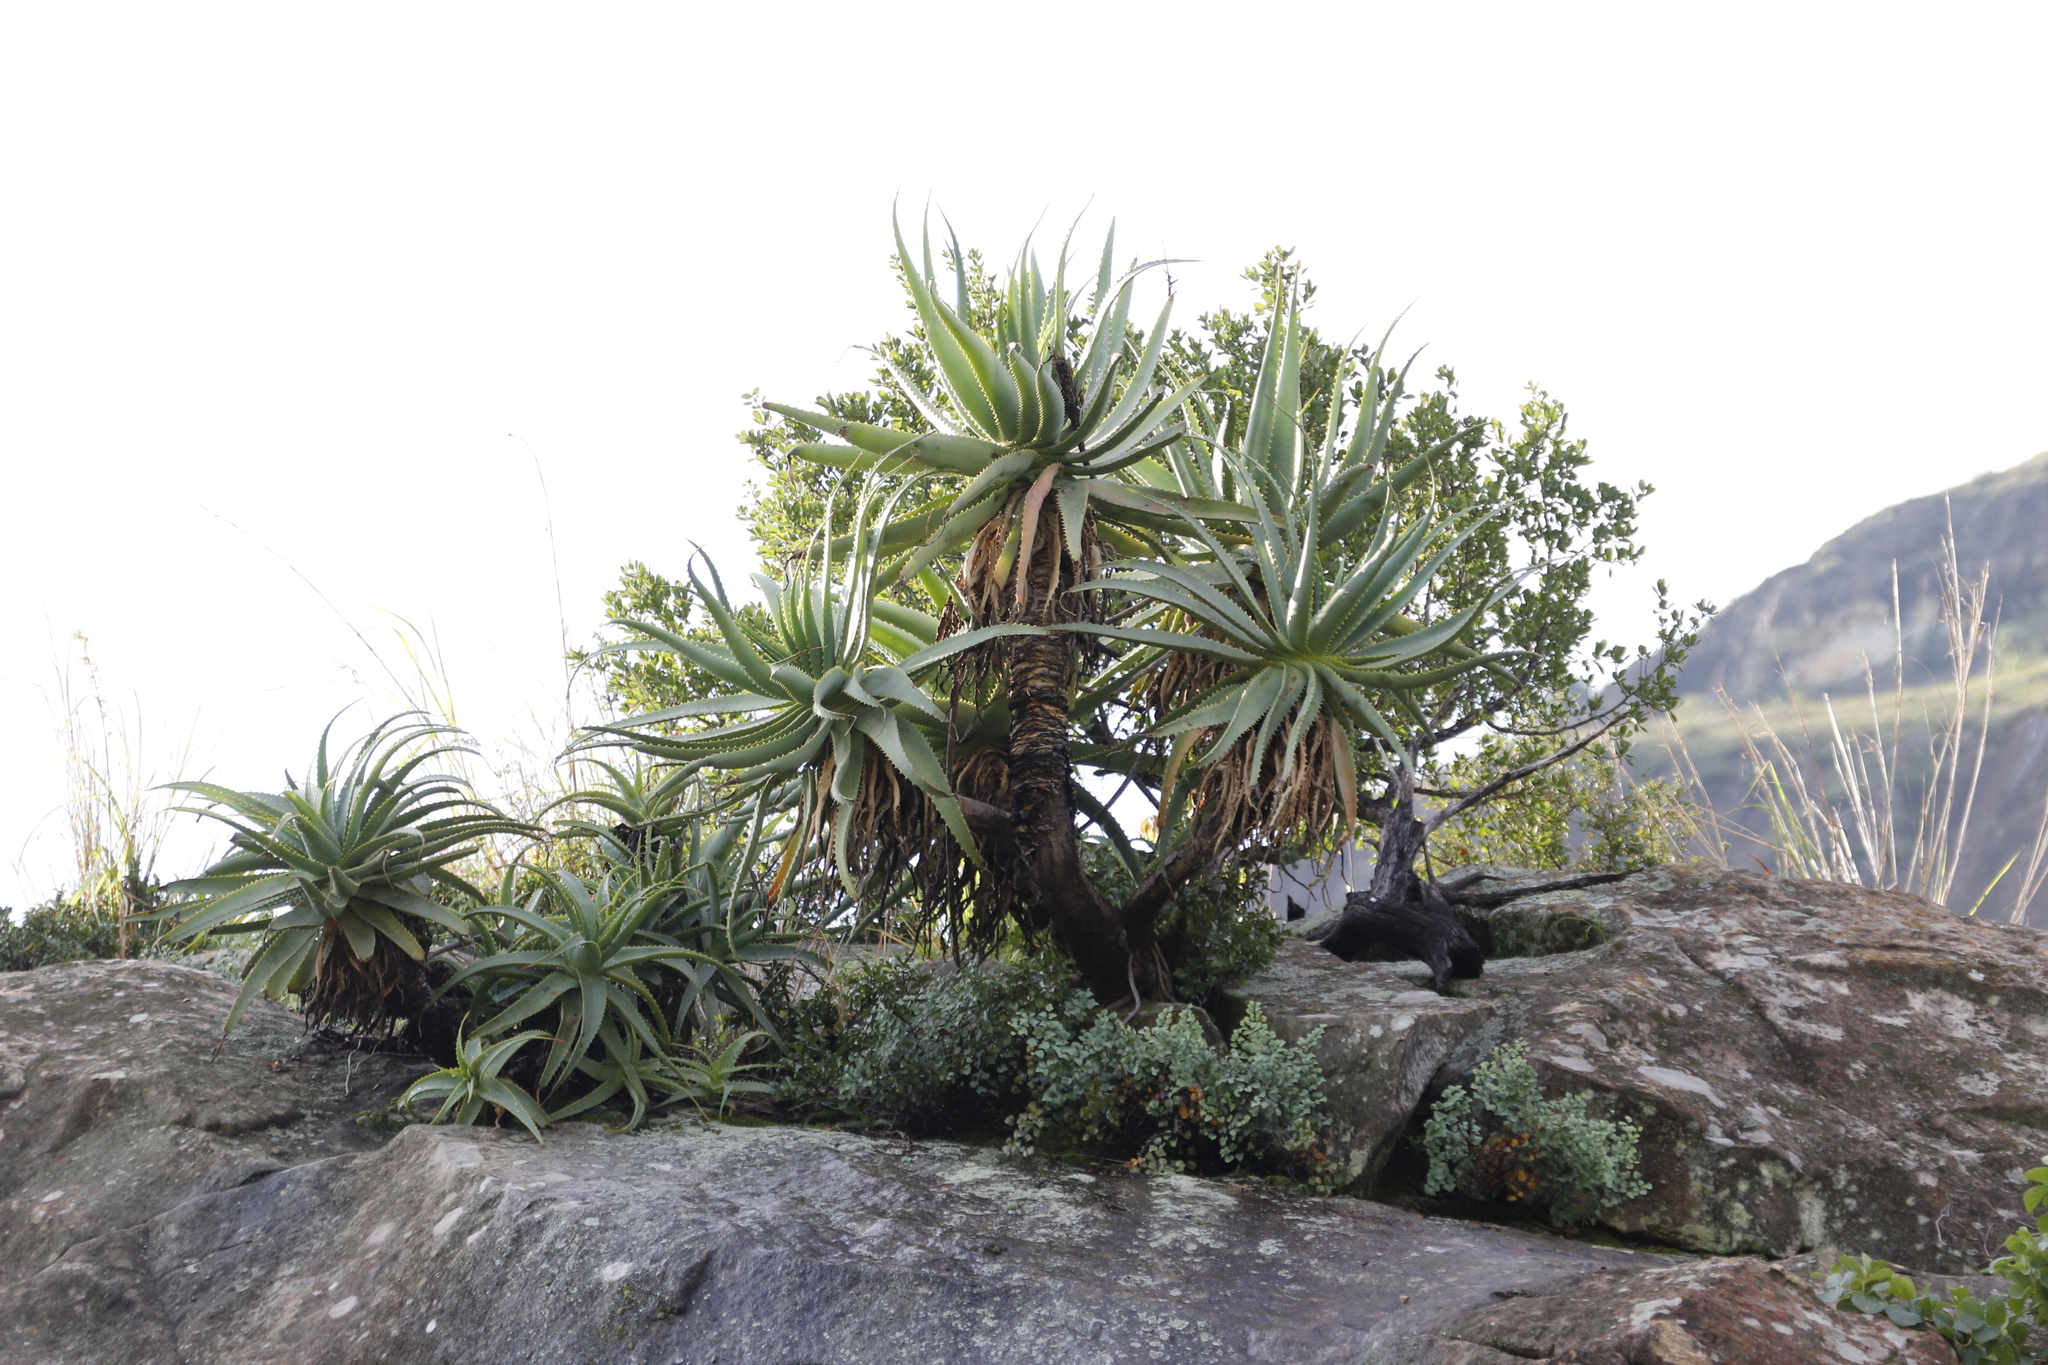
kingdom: Plantae
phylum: Tracheophyta
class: Liliopsida
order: Asparagales
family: Asphodelaceae
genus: Aloe
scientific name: Aloe arborescens
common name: Candelabra aloe
